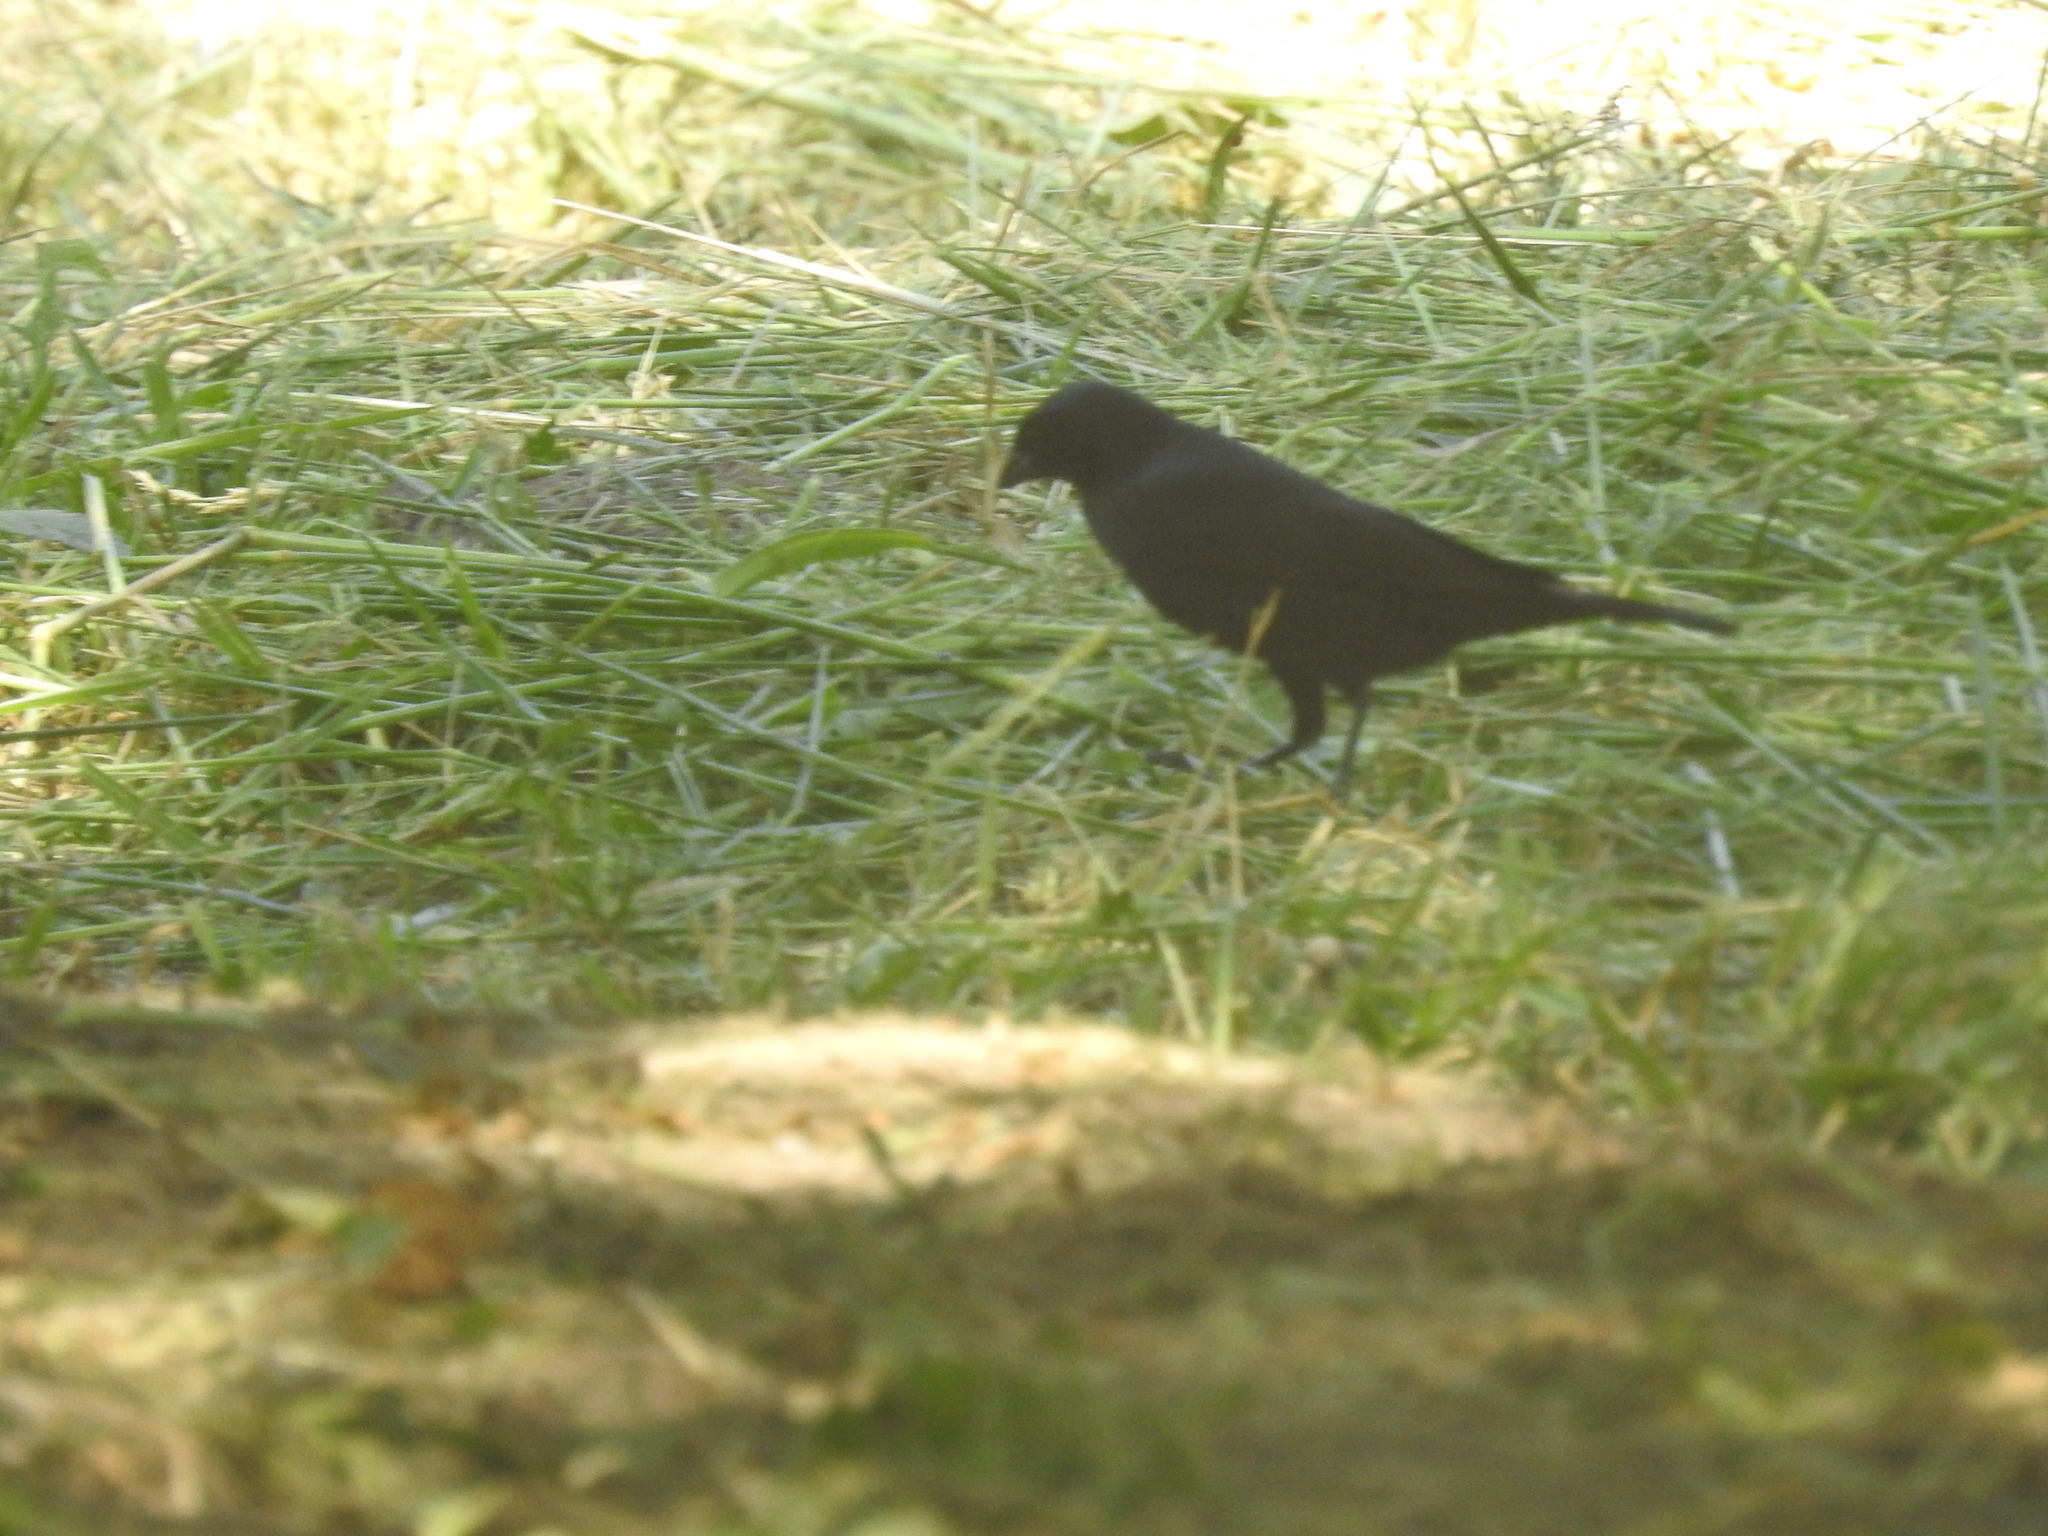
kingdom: Animalia
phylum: Chordata
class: Aves
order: Passeriformes
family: Icteridae
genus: Molothrus
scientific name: Molothrus rufoaxillaris
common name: Screaming cowbird
